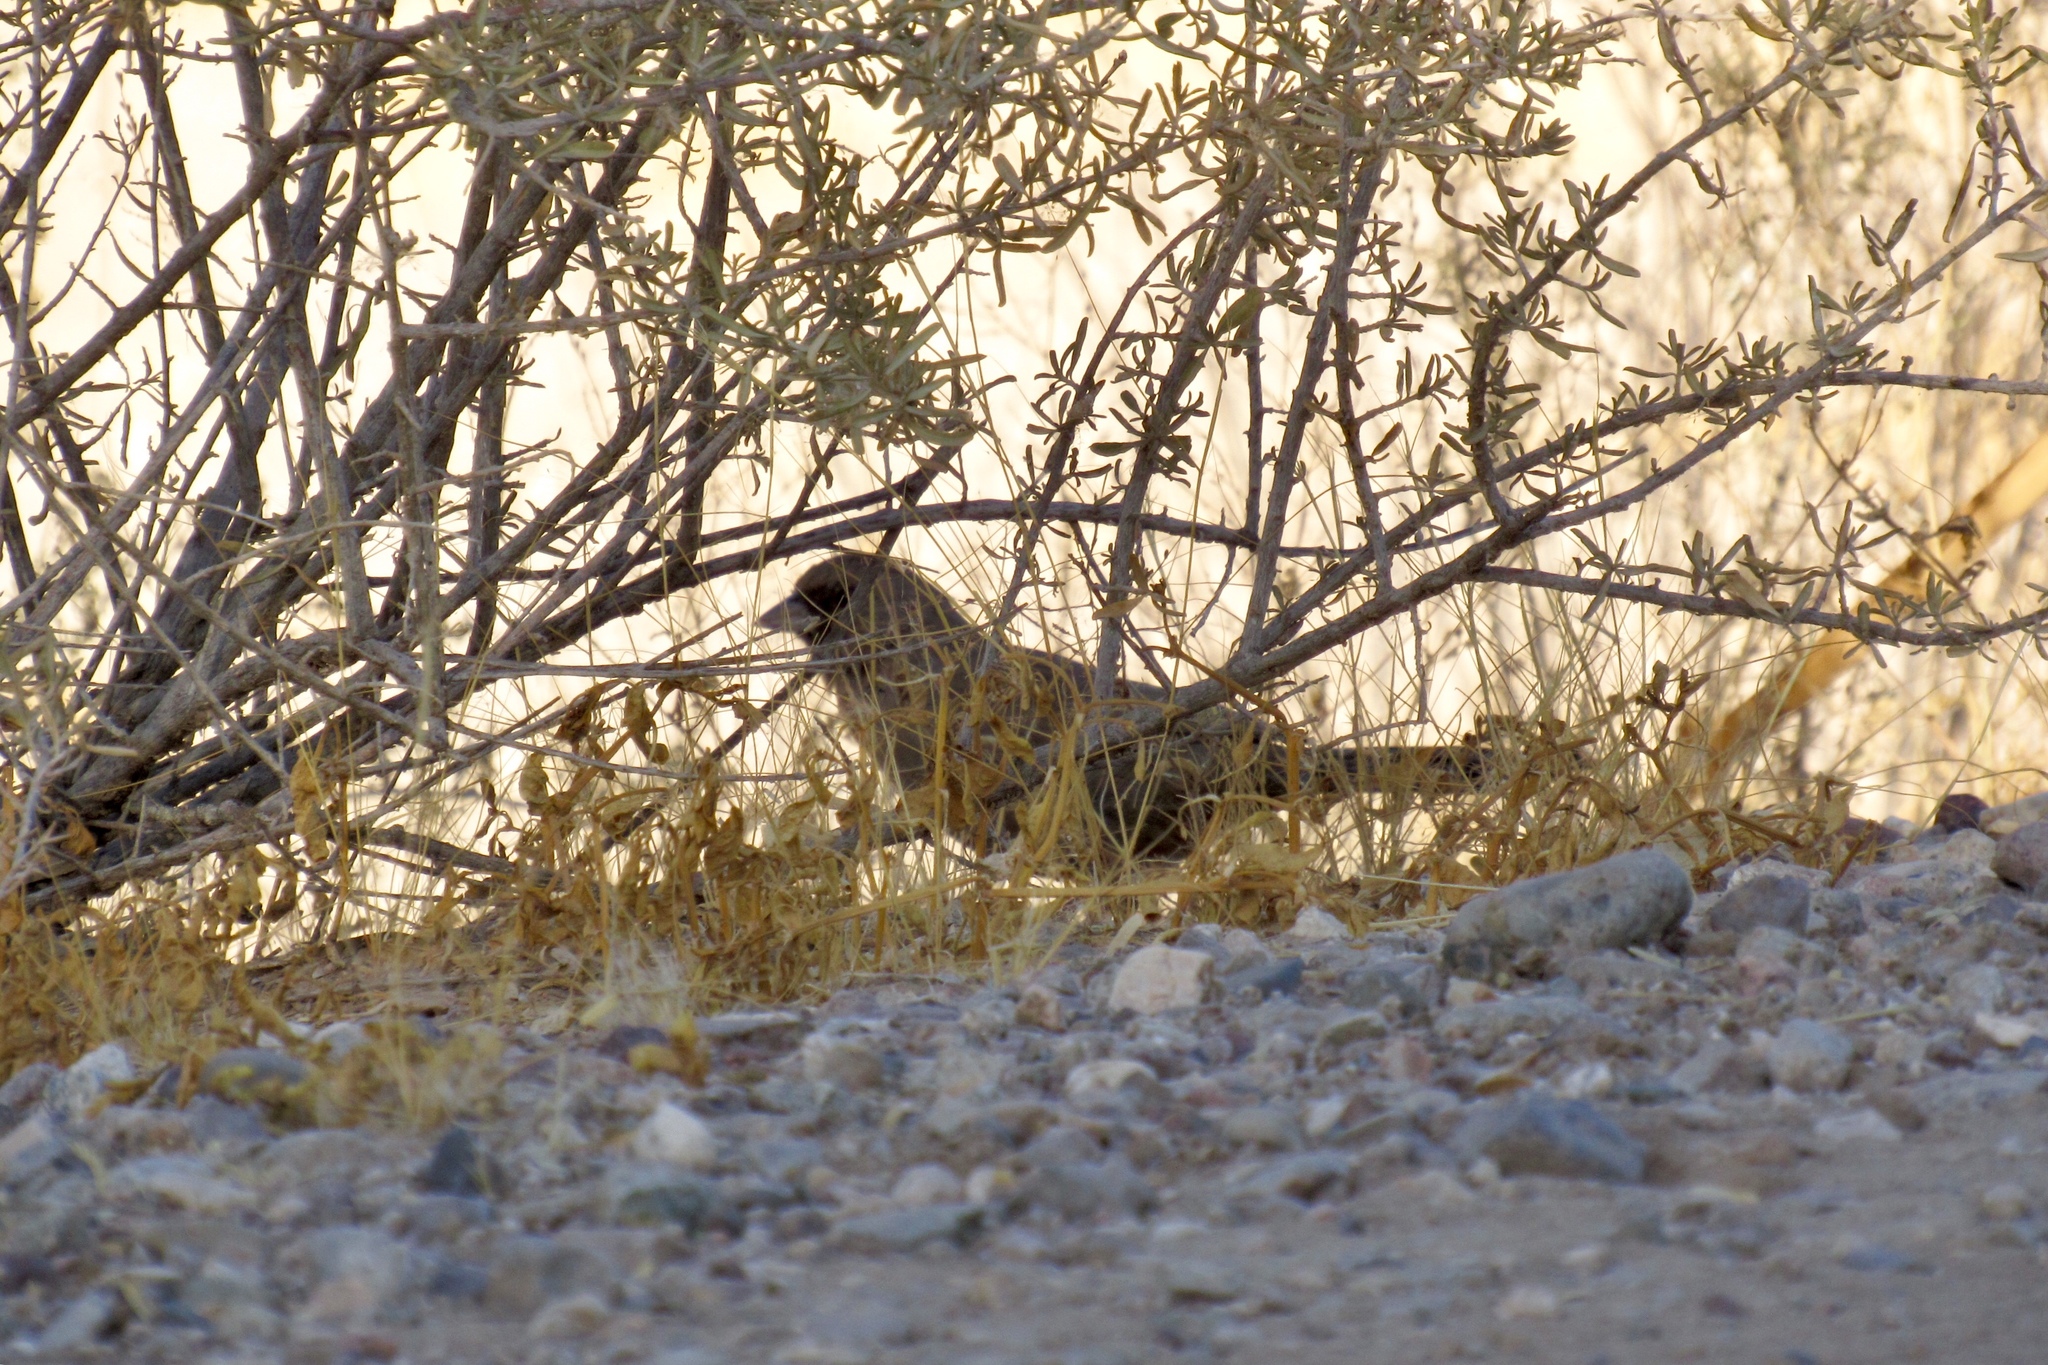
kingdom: Animalia
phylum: Chordata
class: Aves
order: Passeriformes
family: Passerellidae
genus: Melozone
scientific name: Melozone aberti
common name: Abert's towhee
